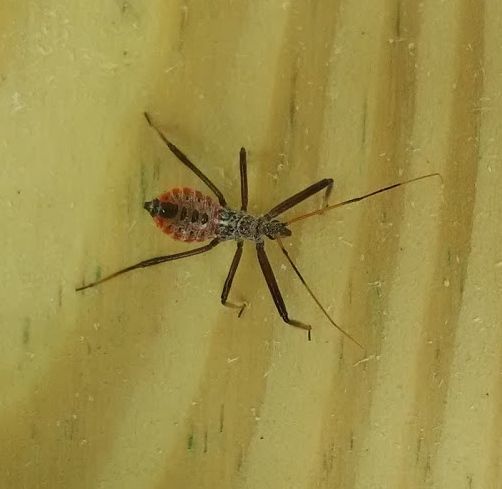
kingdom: Animalia
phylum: Arthropoda
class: Insecta
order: Hemiptera
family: Reduviidae
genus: Arilus
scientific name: Arilus cristatus
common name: North american wheel bug
